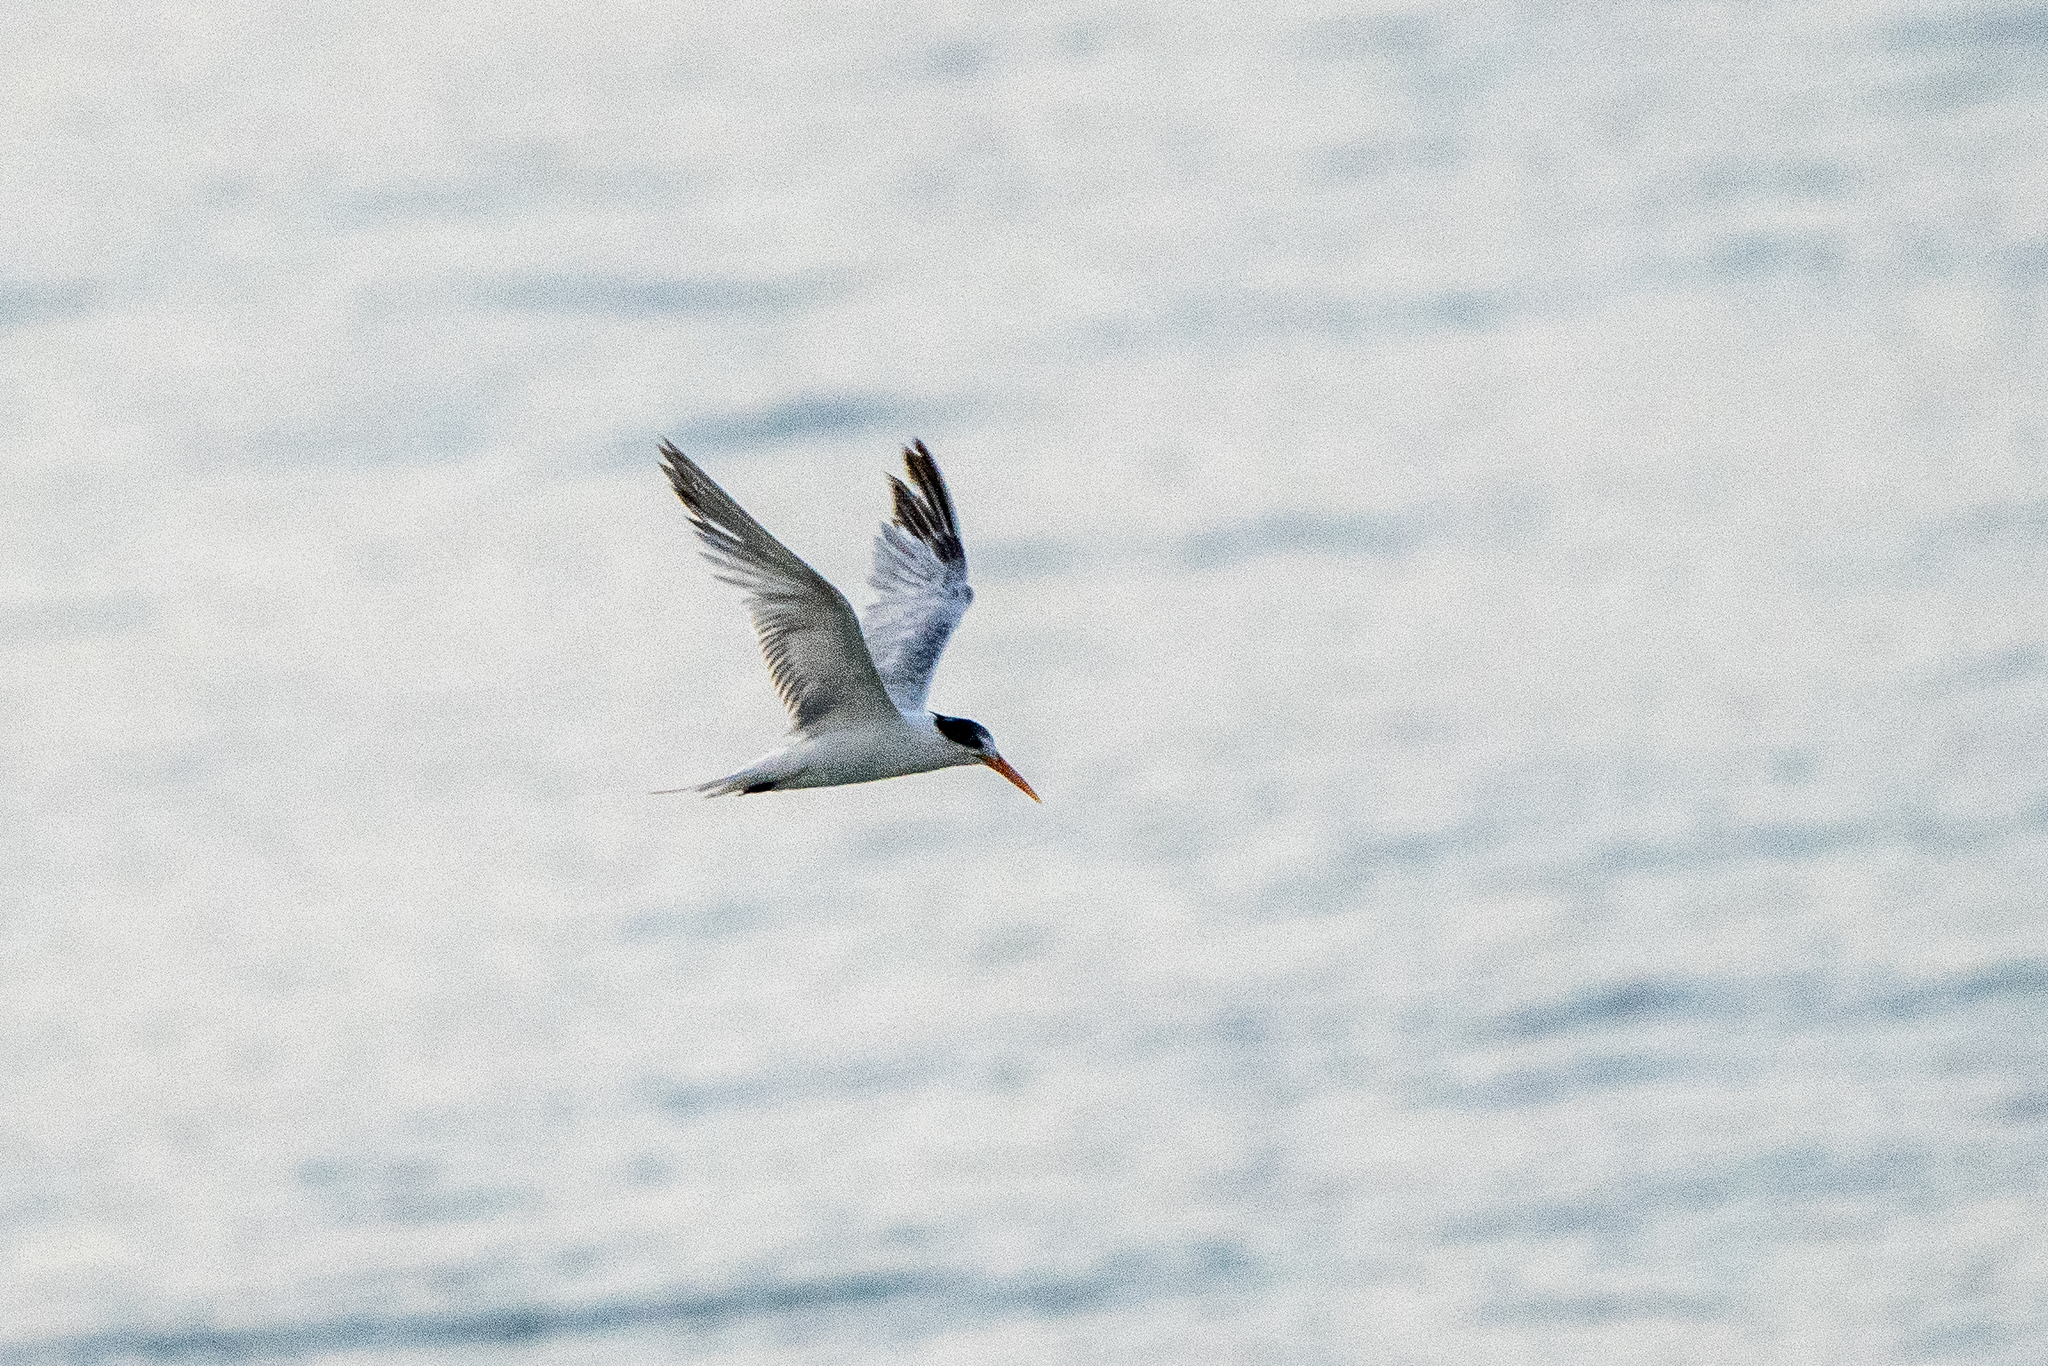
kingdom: Animalia
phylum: Chordata
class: Aves
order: Charadriiformes
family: Laridae
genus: Thalasseus
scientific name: Thalasseus elegans
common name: Elegant tern
